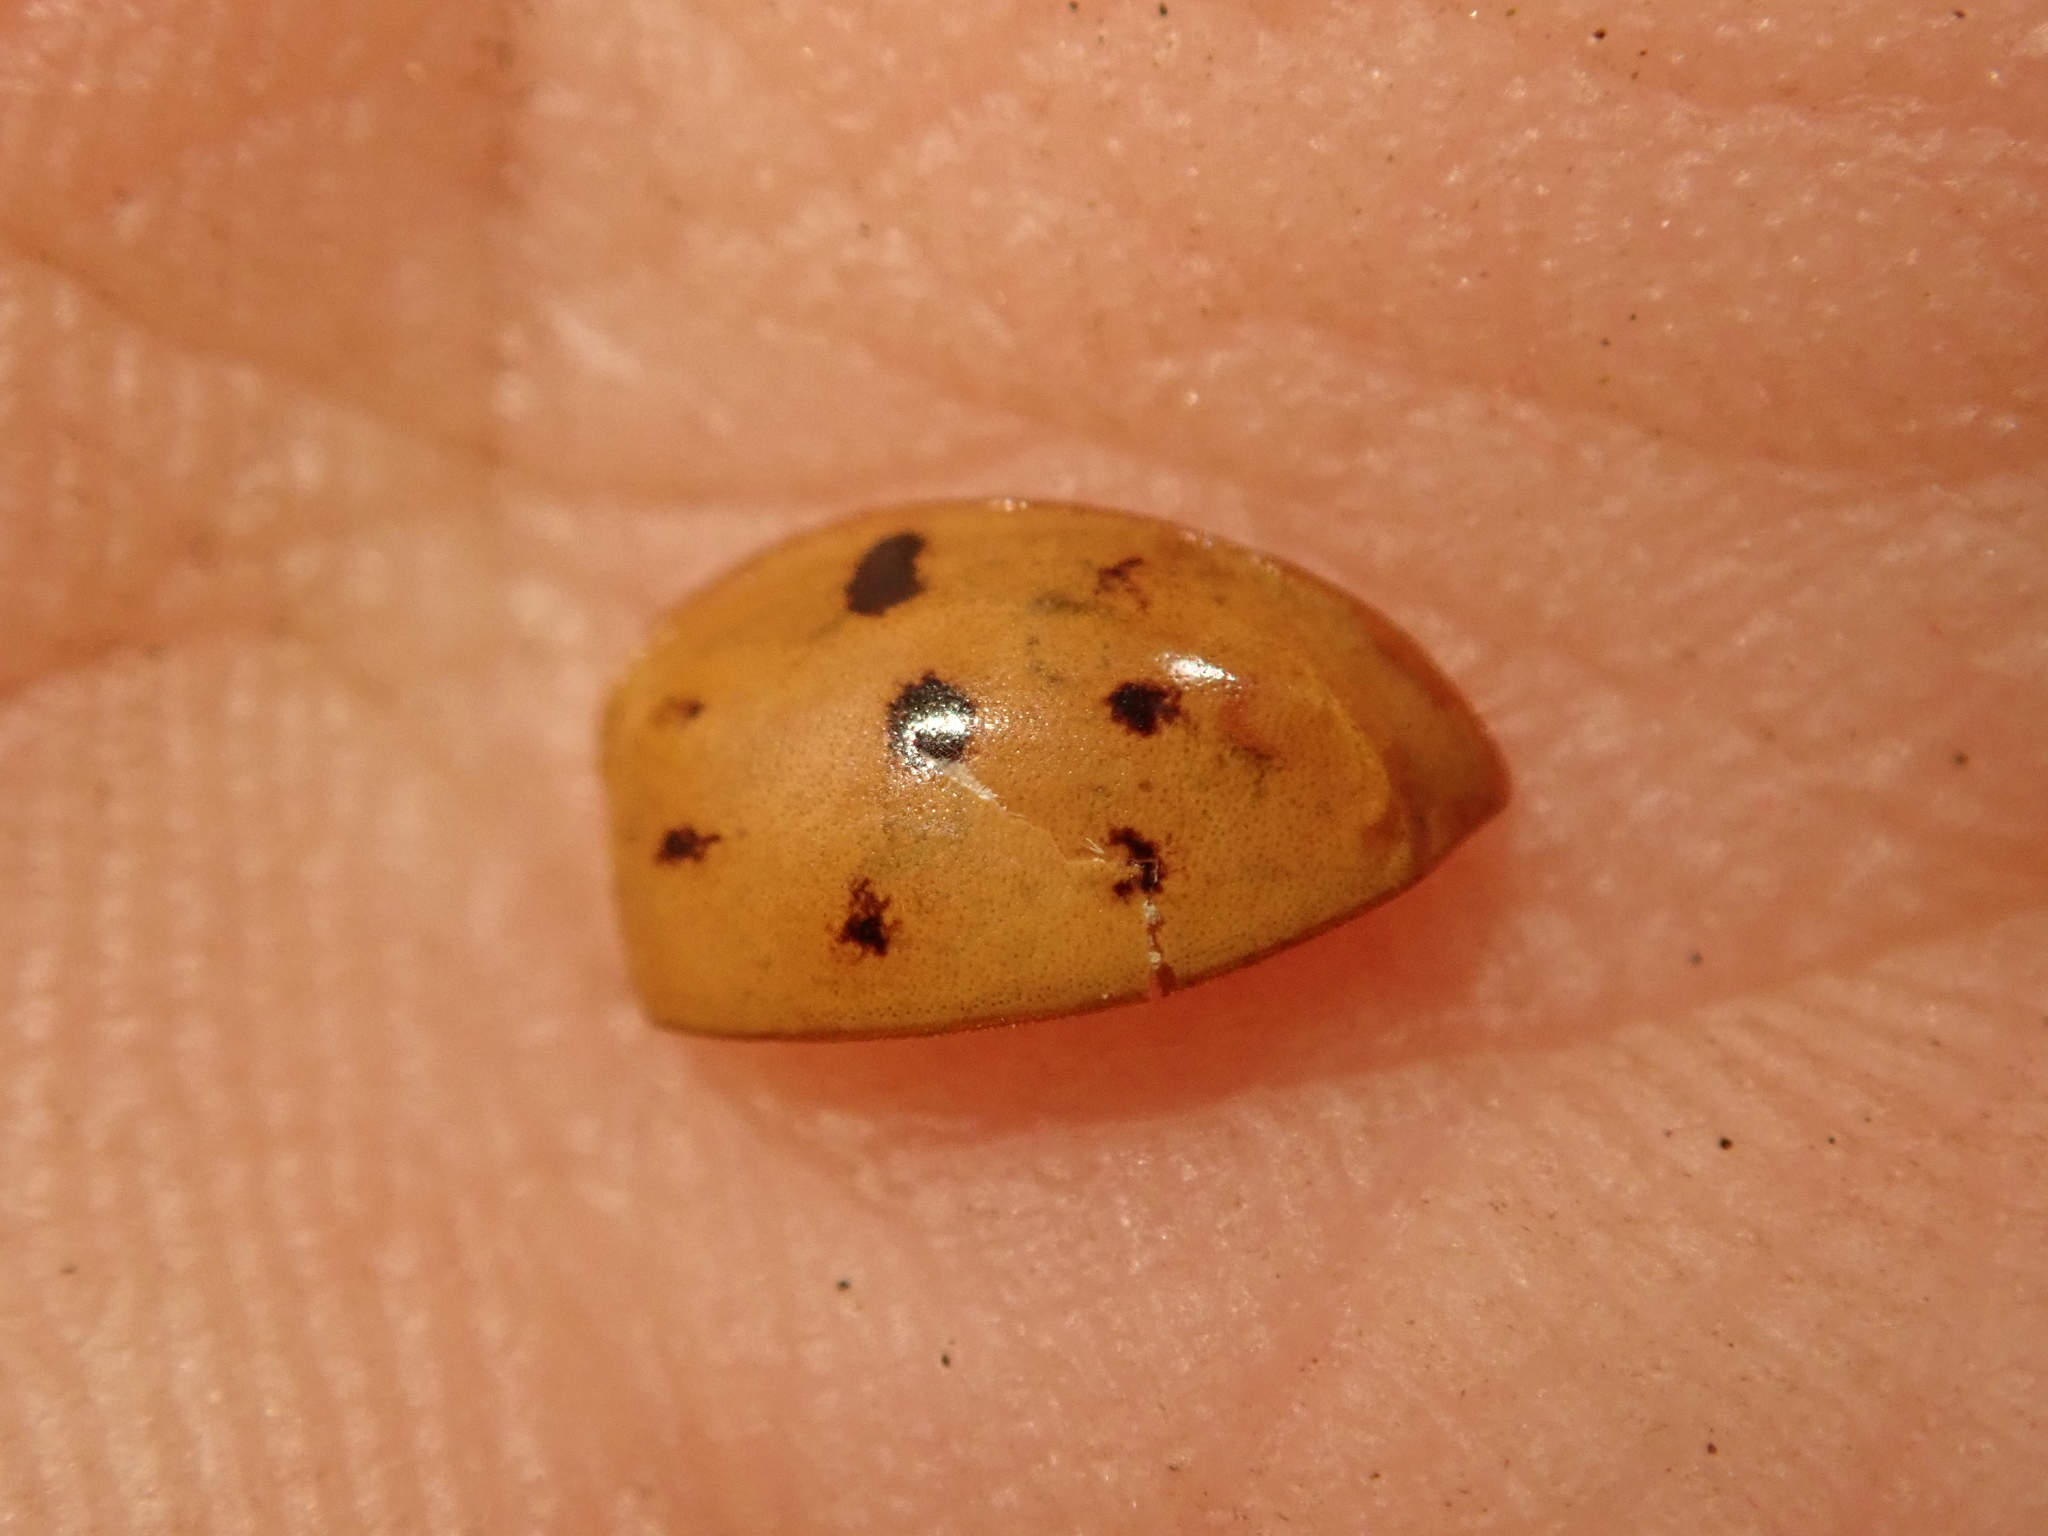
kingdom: Animalia
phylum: Arthropoda
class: Insecta
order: Coleoptera
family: Coccinellidae
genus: Harmonia
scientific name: Harmonia axyridis
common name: Harlequin ladybird
